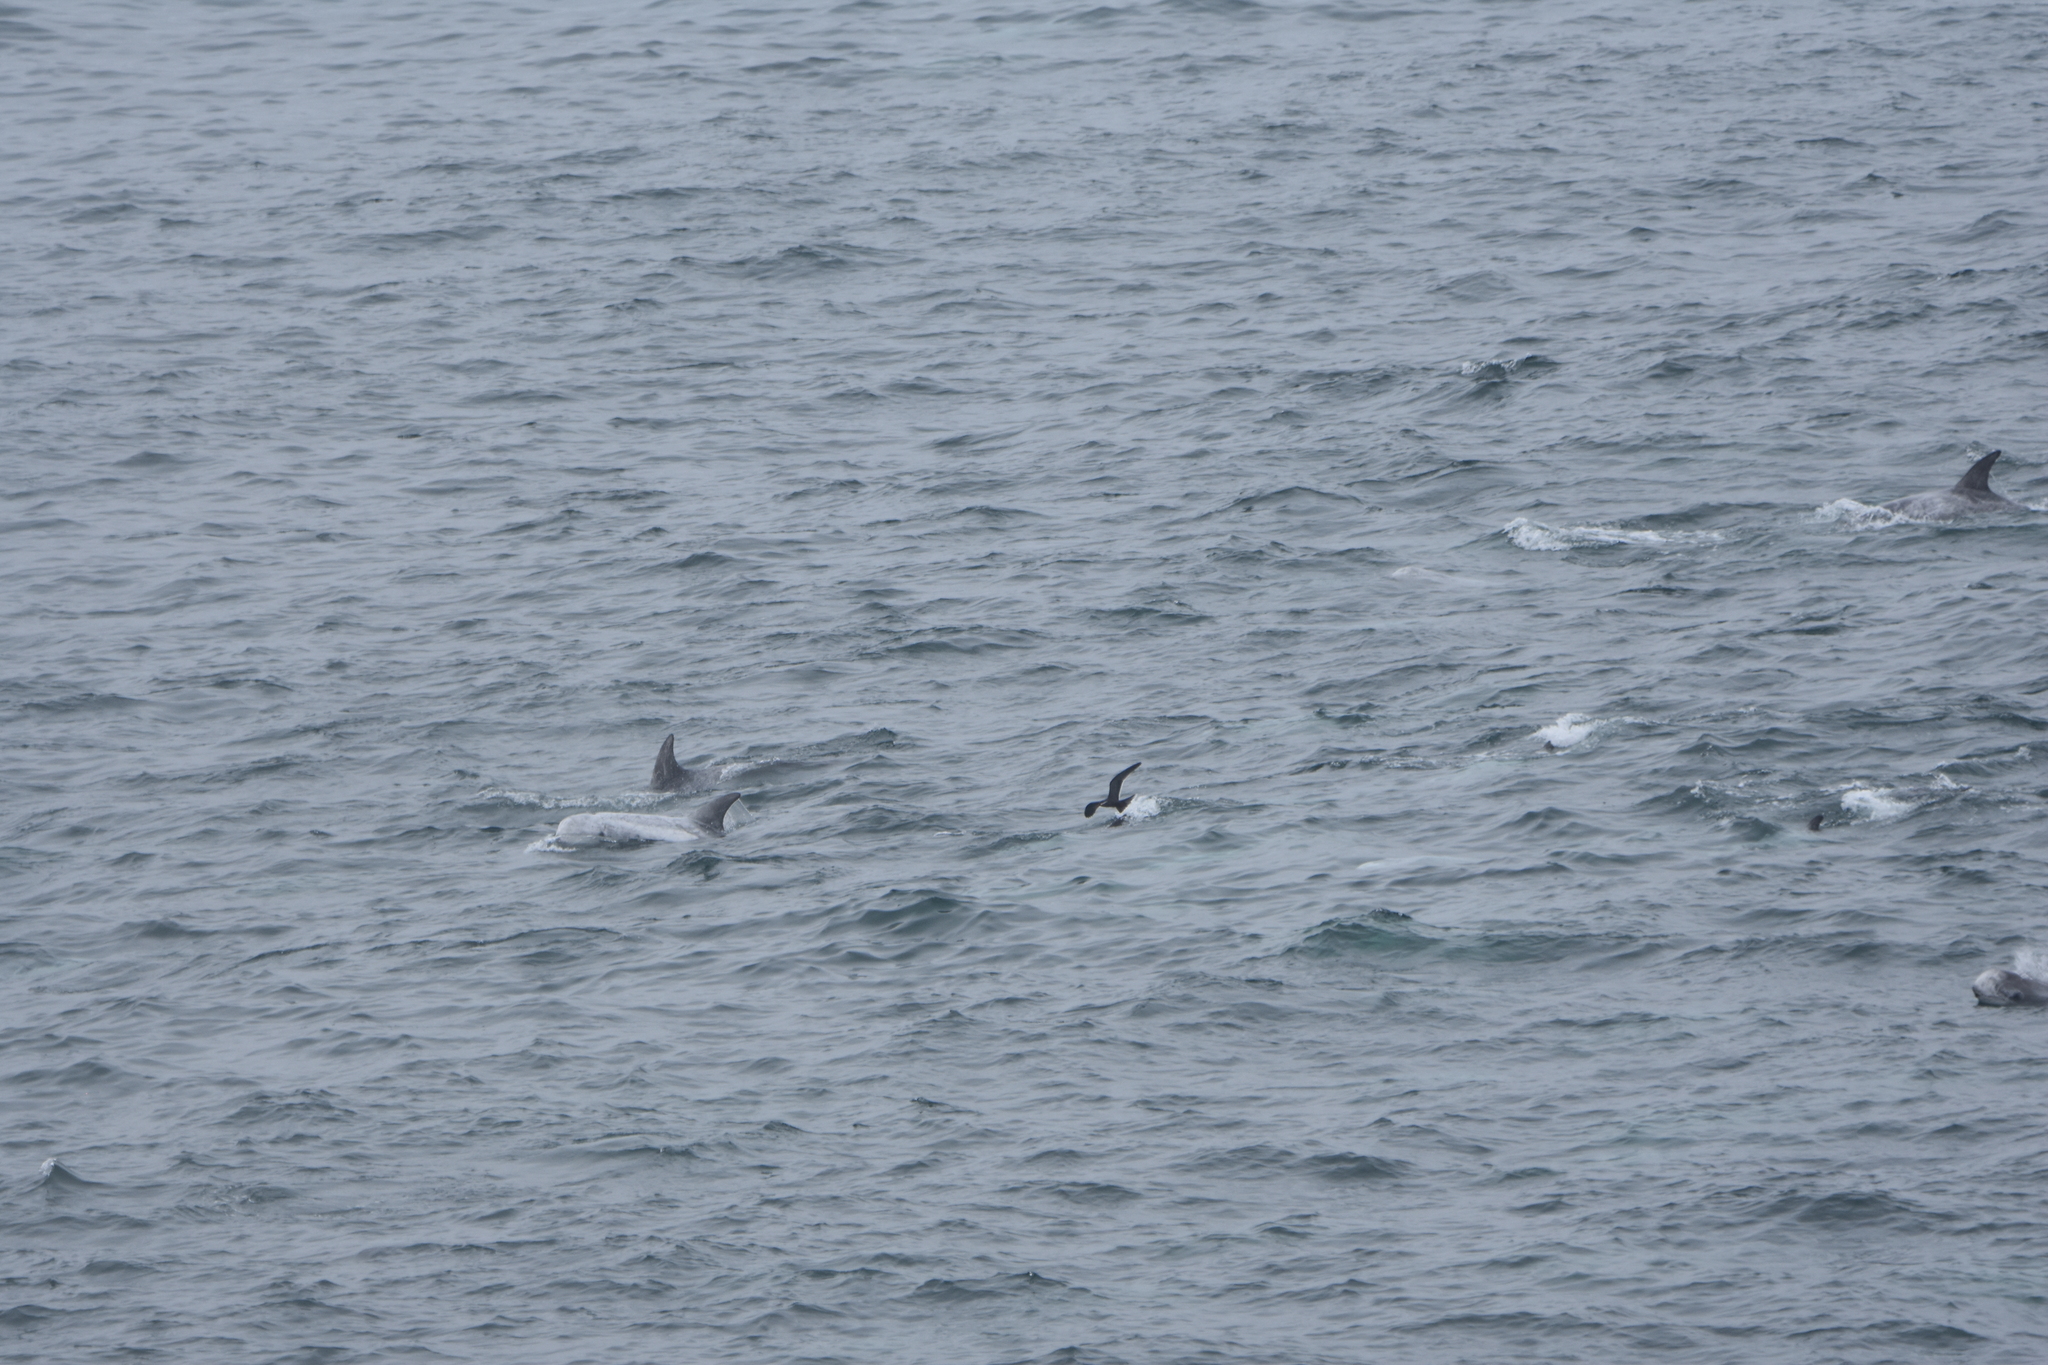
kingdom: Animalia
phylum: Chordata
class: Mammalia
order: Cetacea
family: Delphinidae
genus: Grampus
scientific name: Grampus griseus
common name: Risso's dolphin
